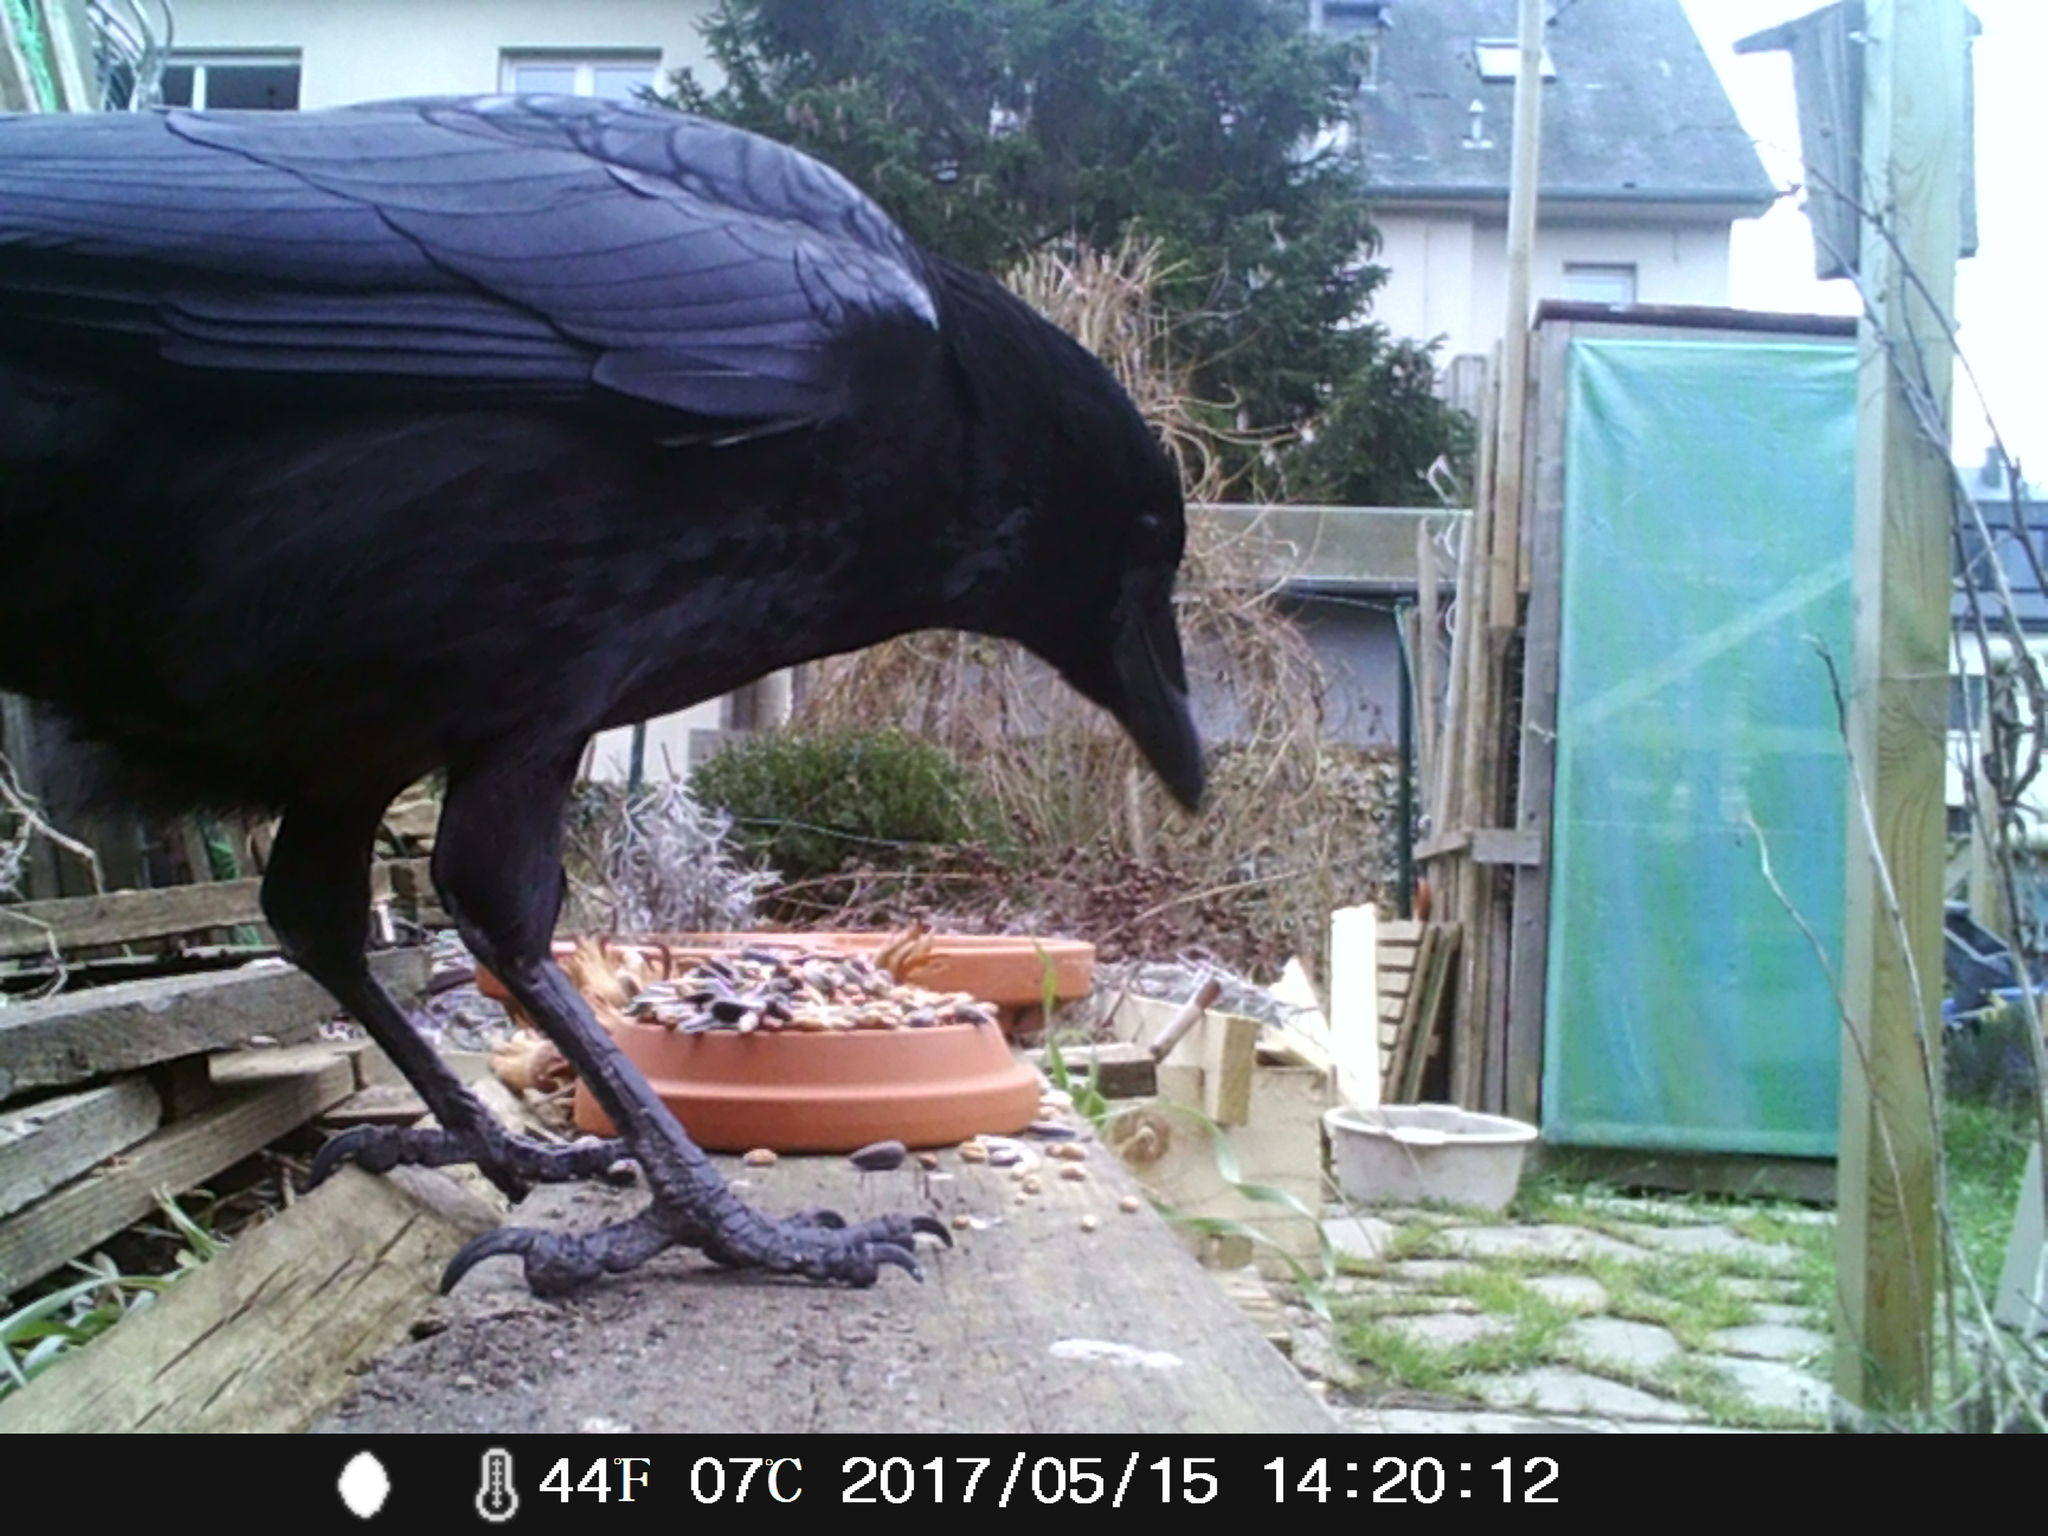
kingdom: Animalia
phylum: Chordata
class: Aves
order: Passeriformes
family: Corvidae
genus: Corvus
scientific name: Corvus corone
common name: Carrion crow
